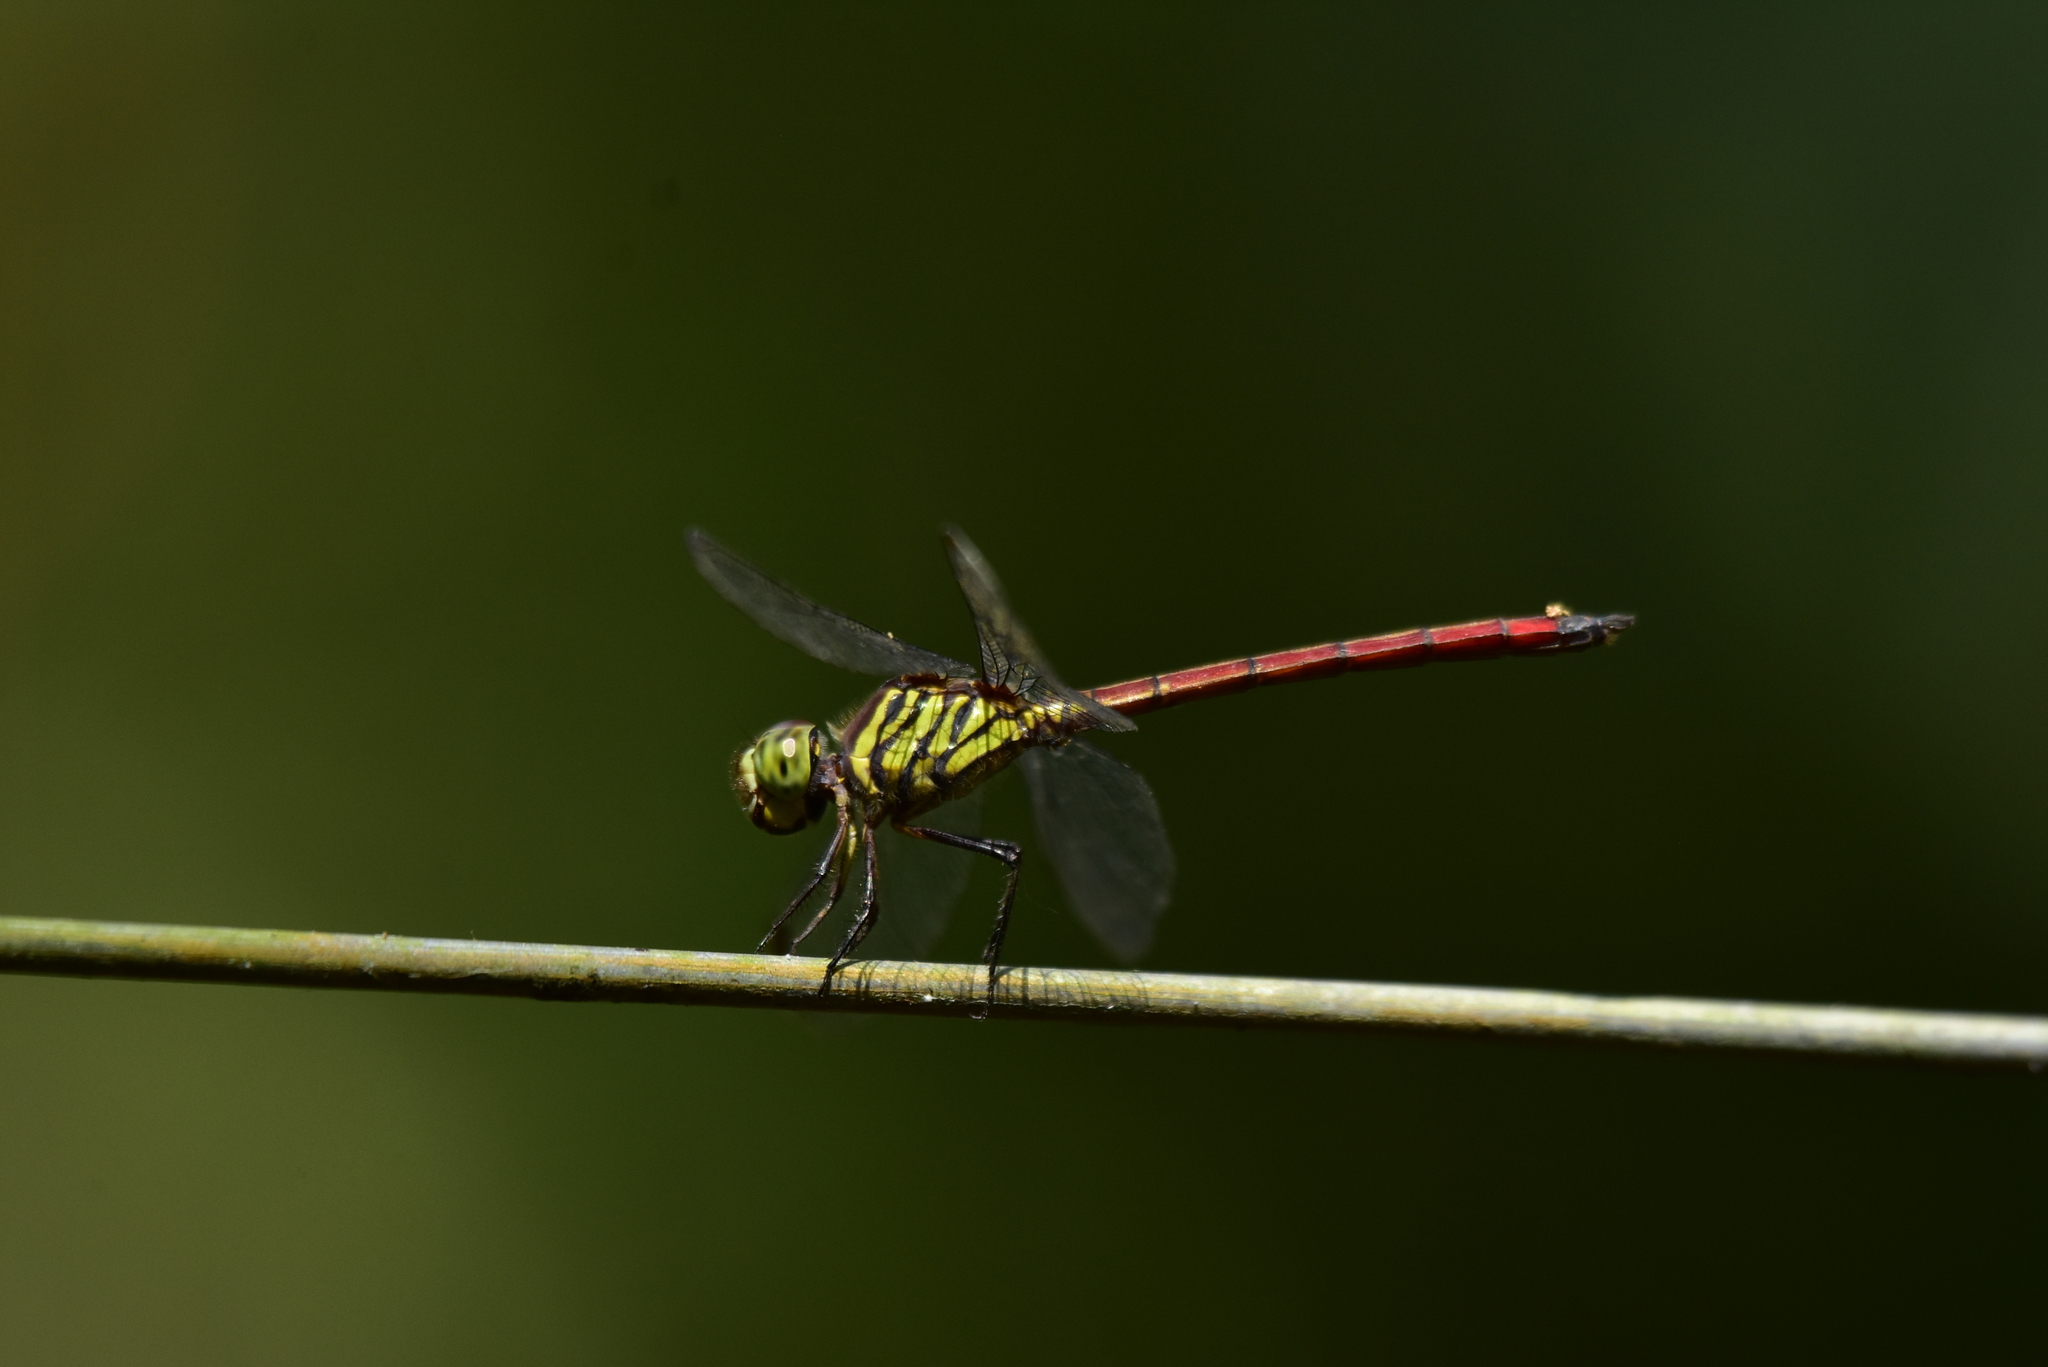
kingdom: Animalia
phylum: Arthropoda
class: Insecta
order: Odonata
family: Libellulidae
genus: Lathrecista
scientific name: Lathrecista asiatica
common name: Scarlet grenadier
